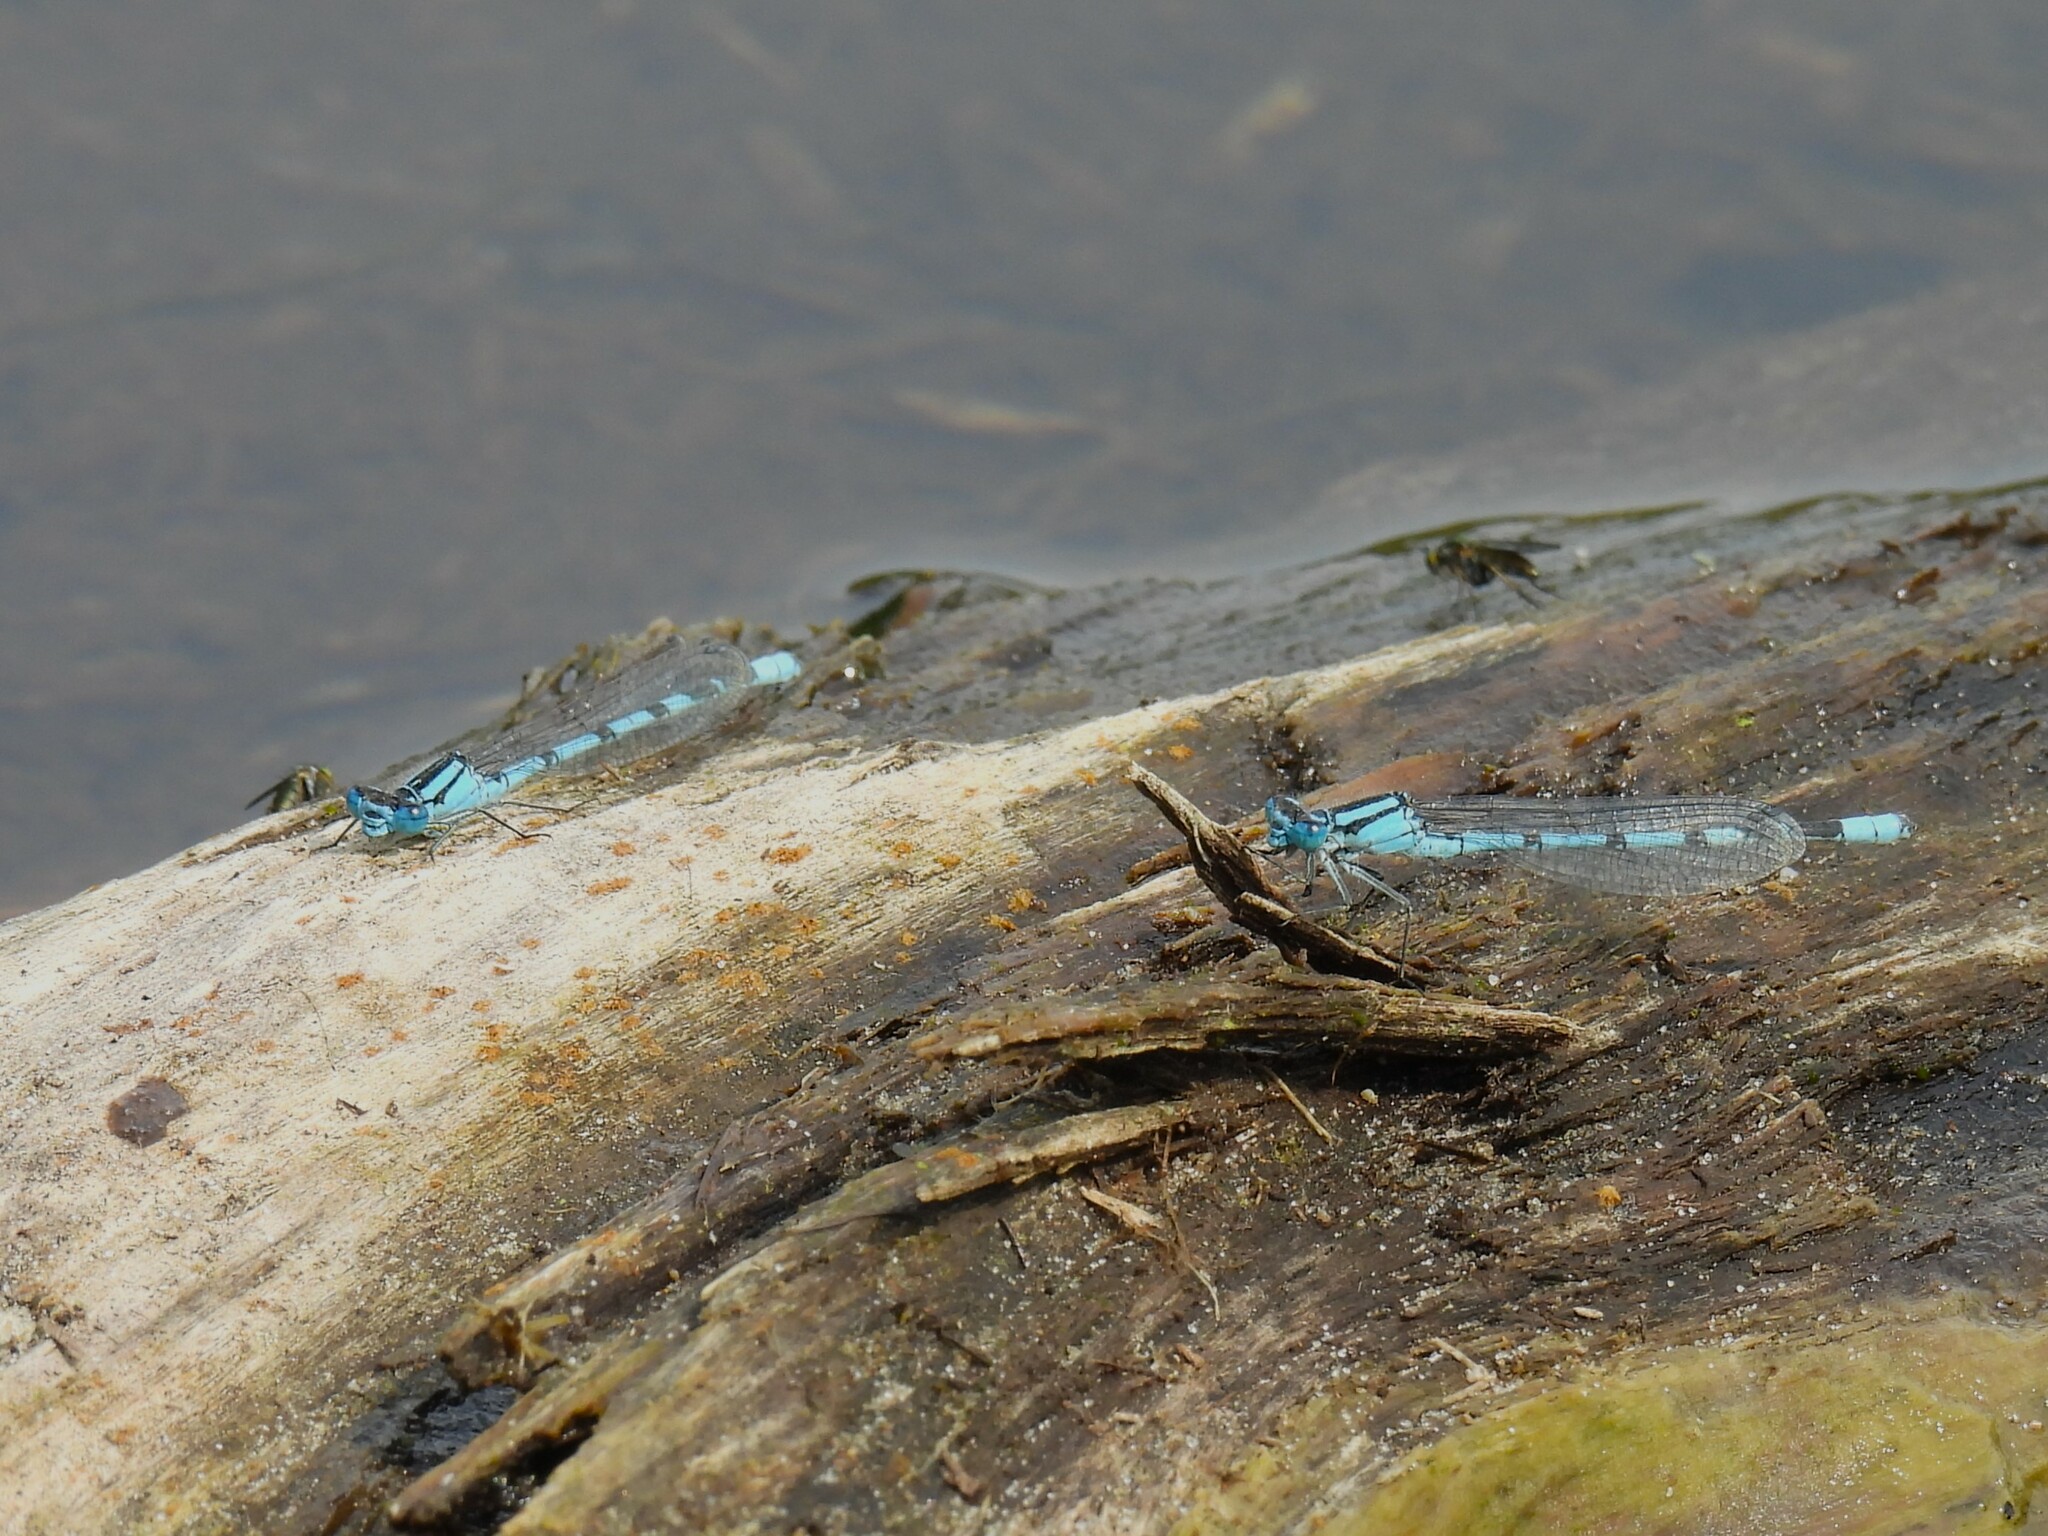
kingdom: Animalia
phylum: Arthropoda
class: Insecta
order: Odonata
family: Coenagrionidae
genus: Enallagma
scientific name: Enallagma cyathigerum
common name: Common blue damselfly
